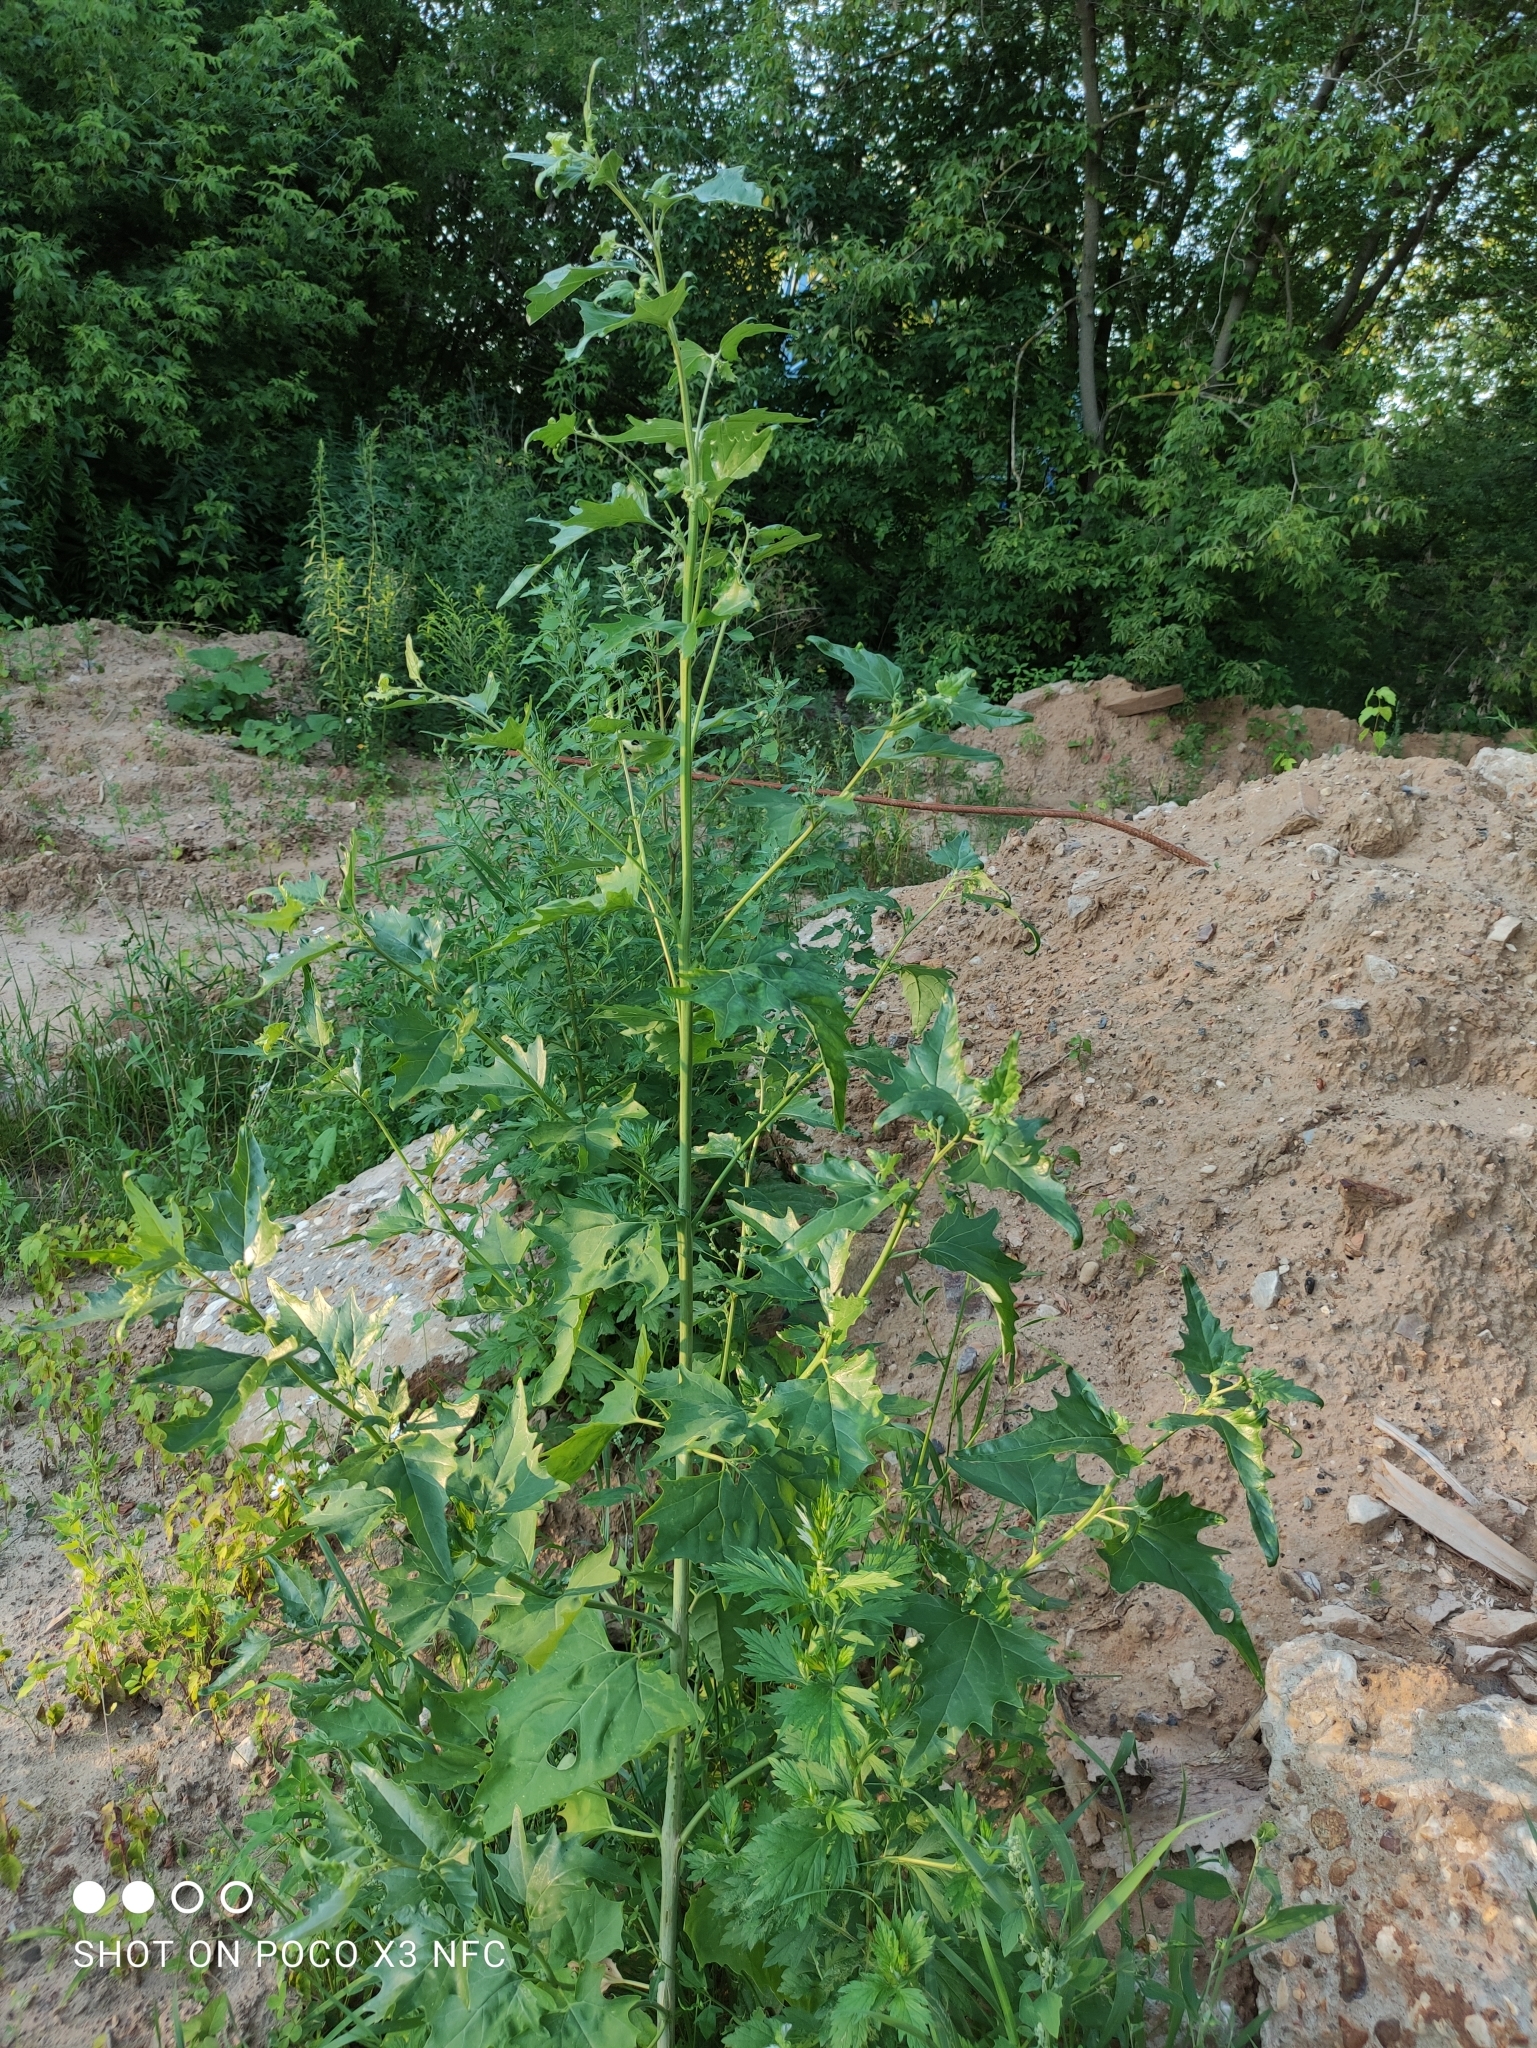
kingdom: Plantae
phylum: Tracheophyta
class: Magnoliopsida
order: Caryophyllales
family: Amaranthaceae
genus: Atriplex
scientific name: Atriplex sagittata
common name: Purple orache
